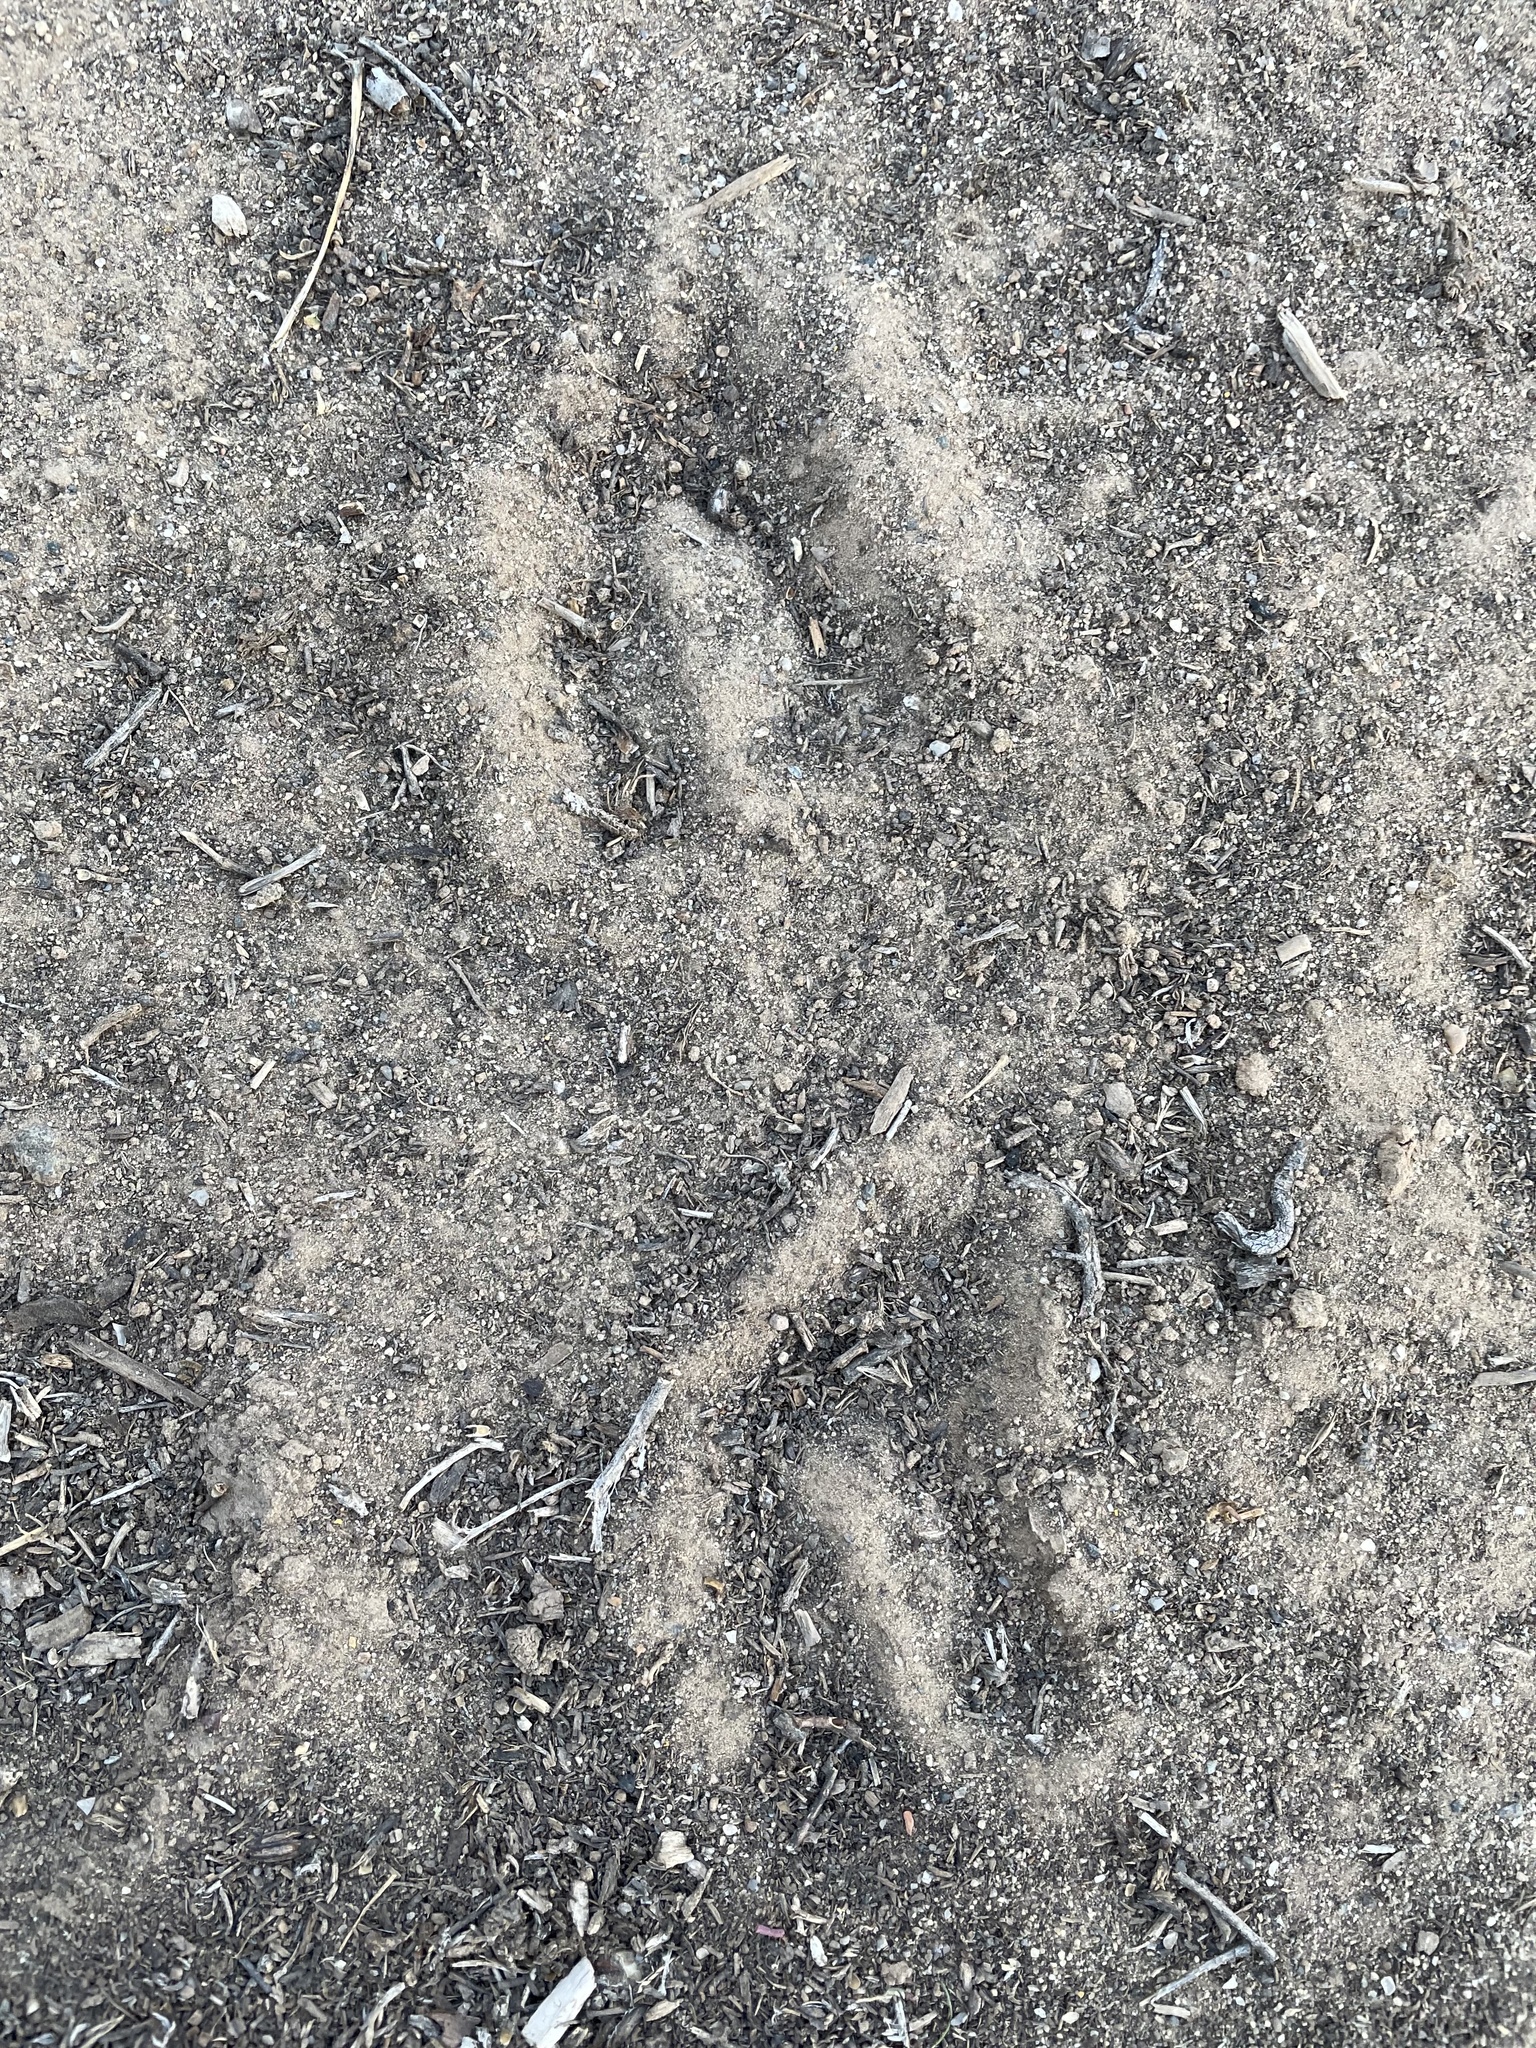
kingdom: Animalia
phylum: Chordata
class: Mammalia
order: Artiodactyla
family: Cervidae
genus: Odocoileus
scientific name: Odocoileus hemionus
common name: Mule deer
